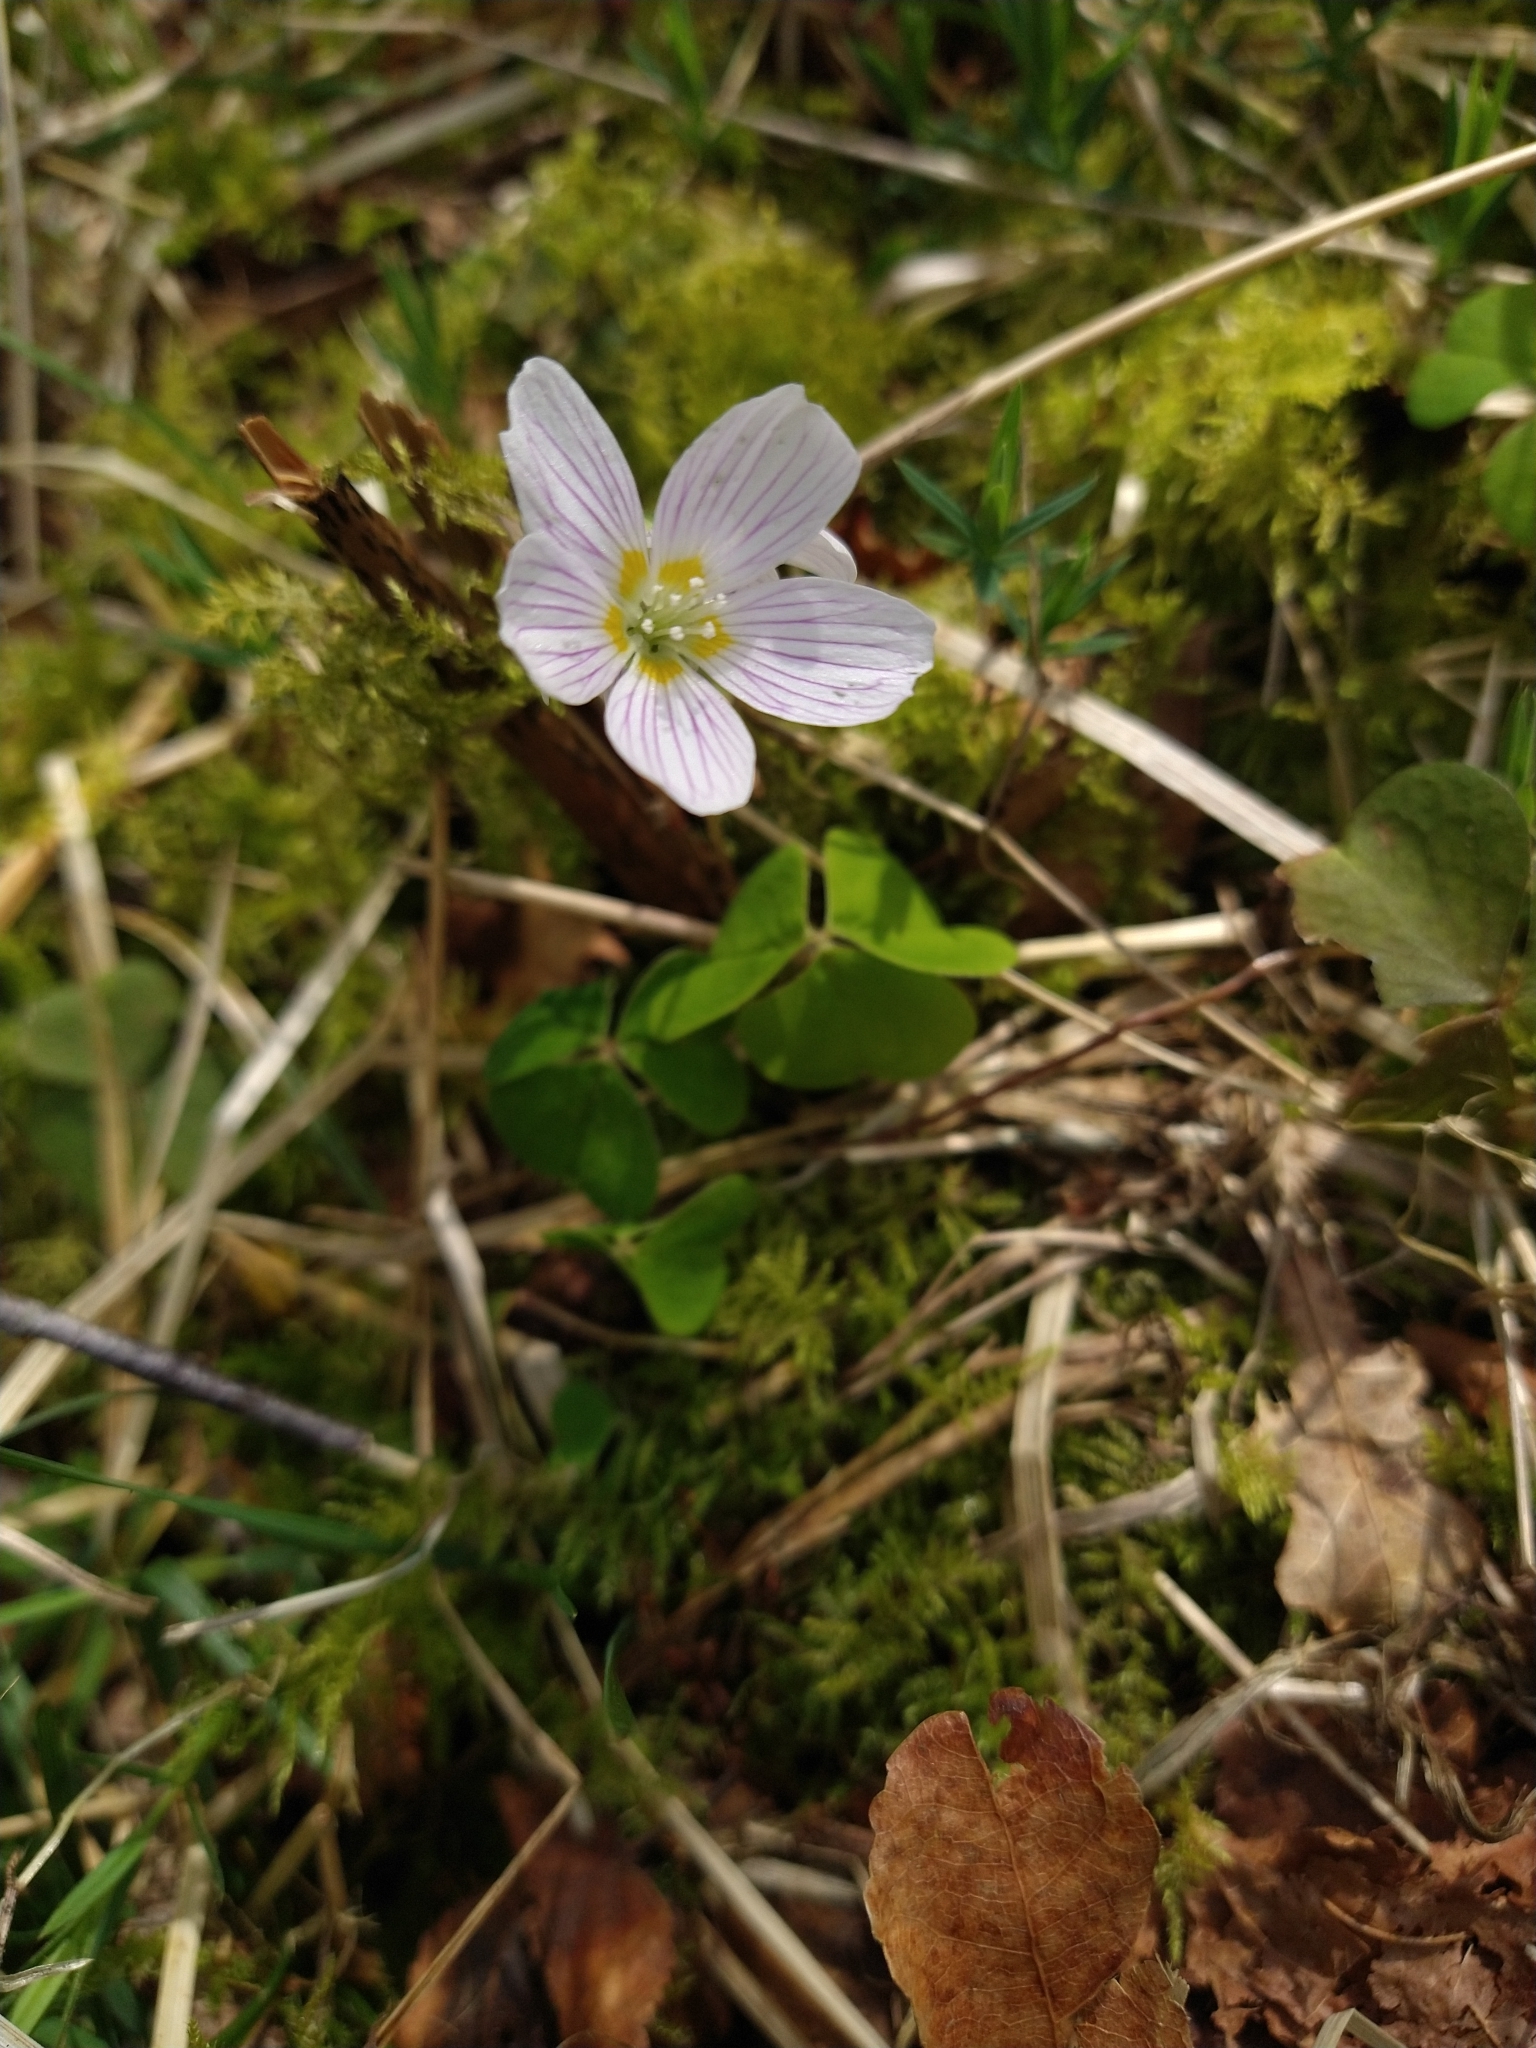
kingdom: Plantae
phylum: Tracheophyta
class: Magnoliopsida
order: Oxalidales
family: Oxalidaceae
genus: Oxalis
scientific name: Oxalis acetosella
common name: Wood-sorrel
